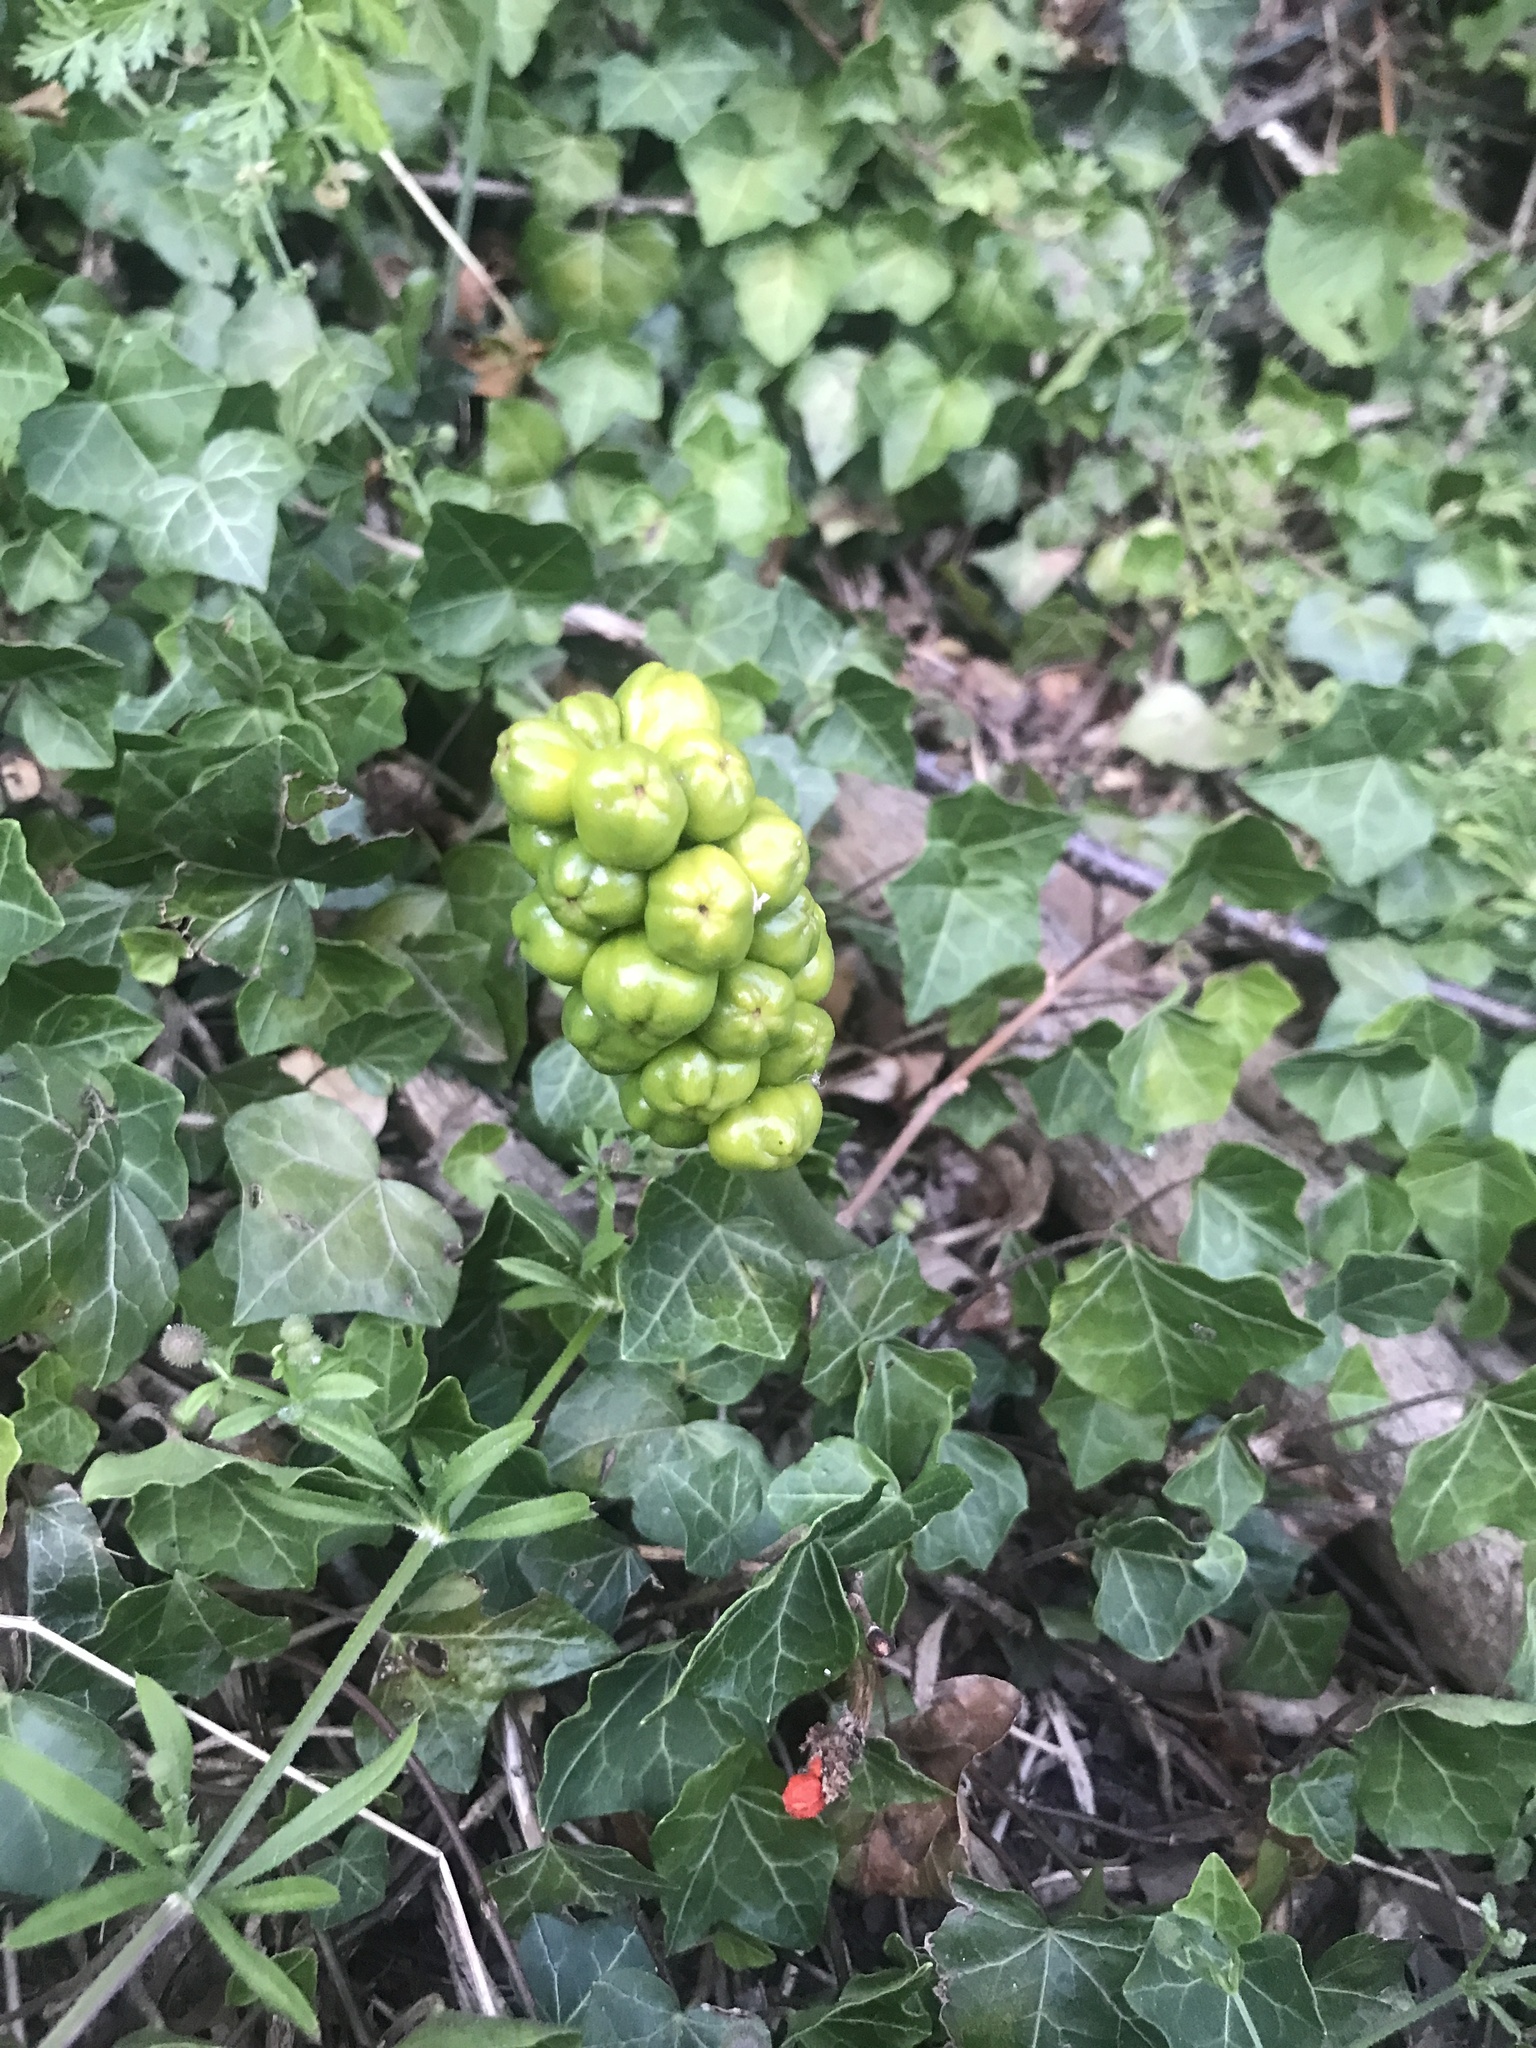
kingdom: Plantae
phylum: Tracheophyta
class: Liliopsida
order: Alismatales
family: Araceae
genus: Arum
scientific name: Arum maculatum
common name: Lords-and-ladies
